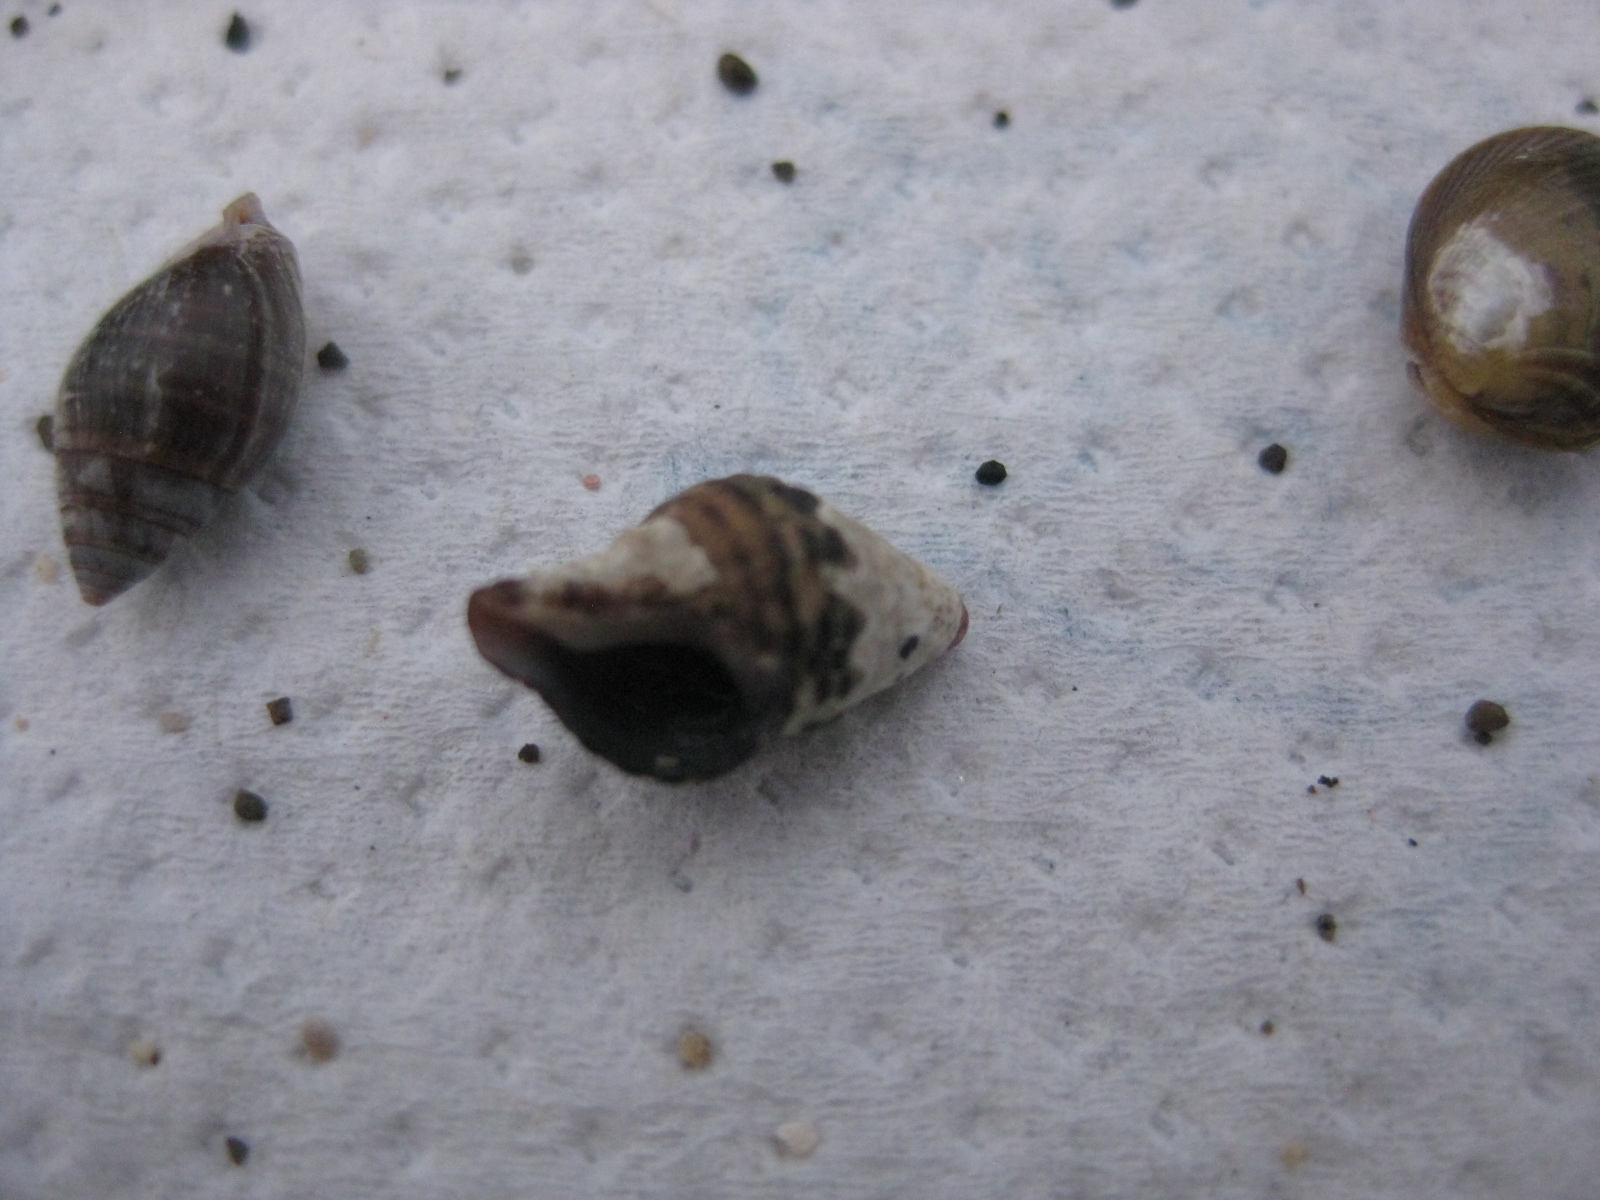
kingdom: Animalia
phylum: Mollusca
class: Gastropoda
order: Neogastropoda
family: Fasciolariidae
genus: Taron
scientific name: Taron dubius
